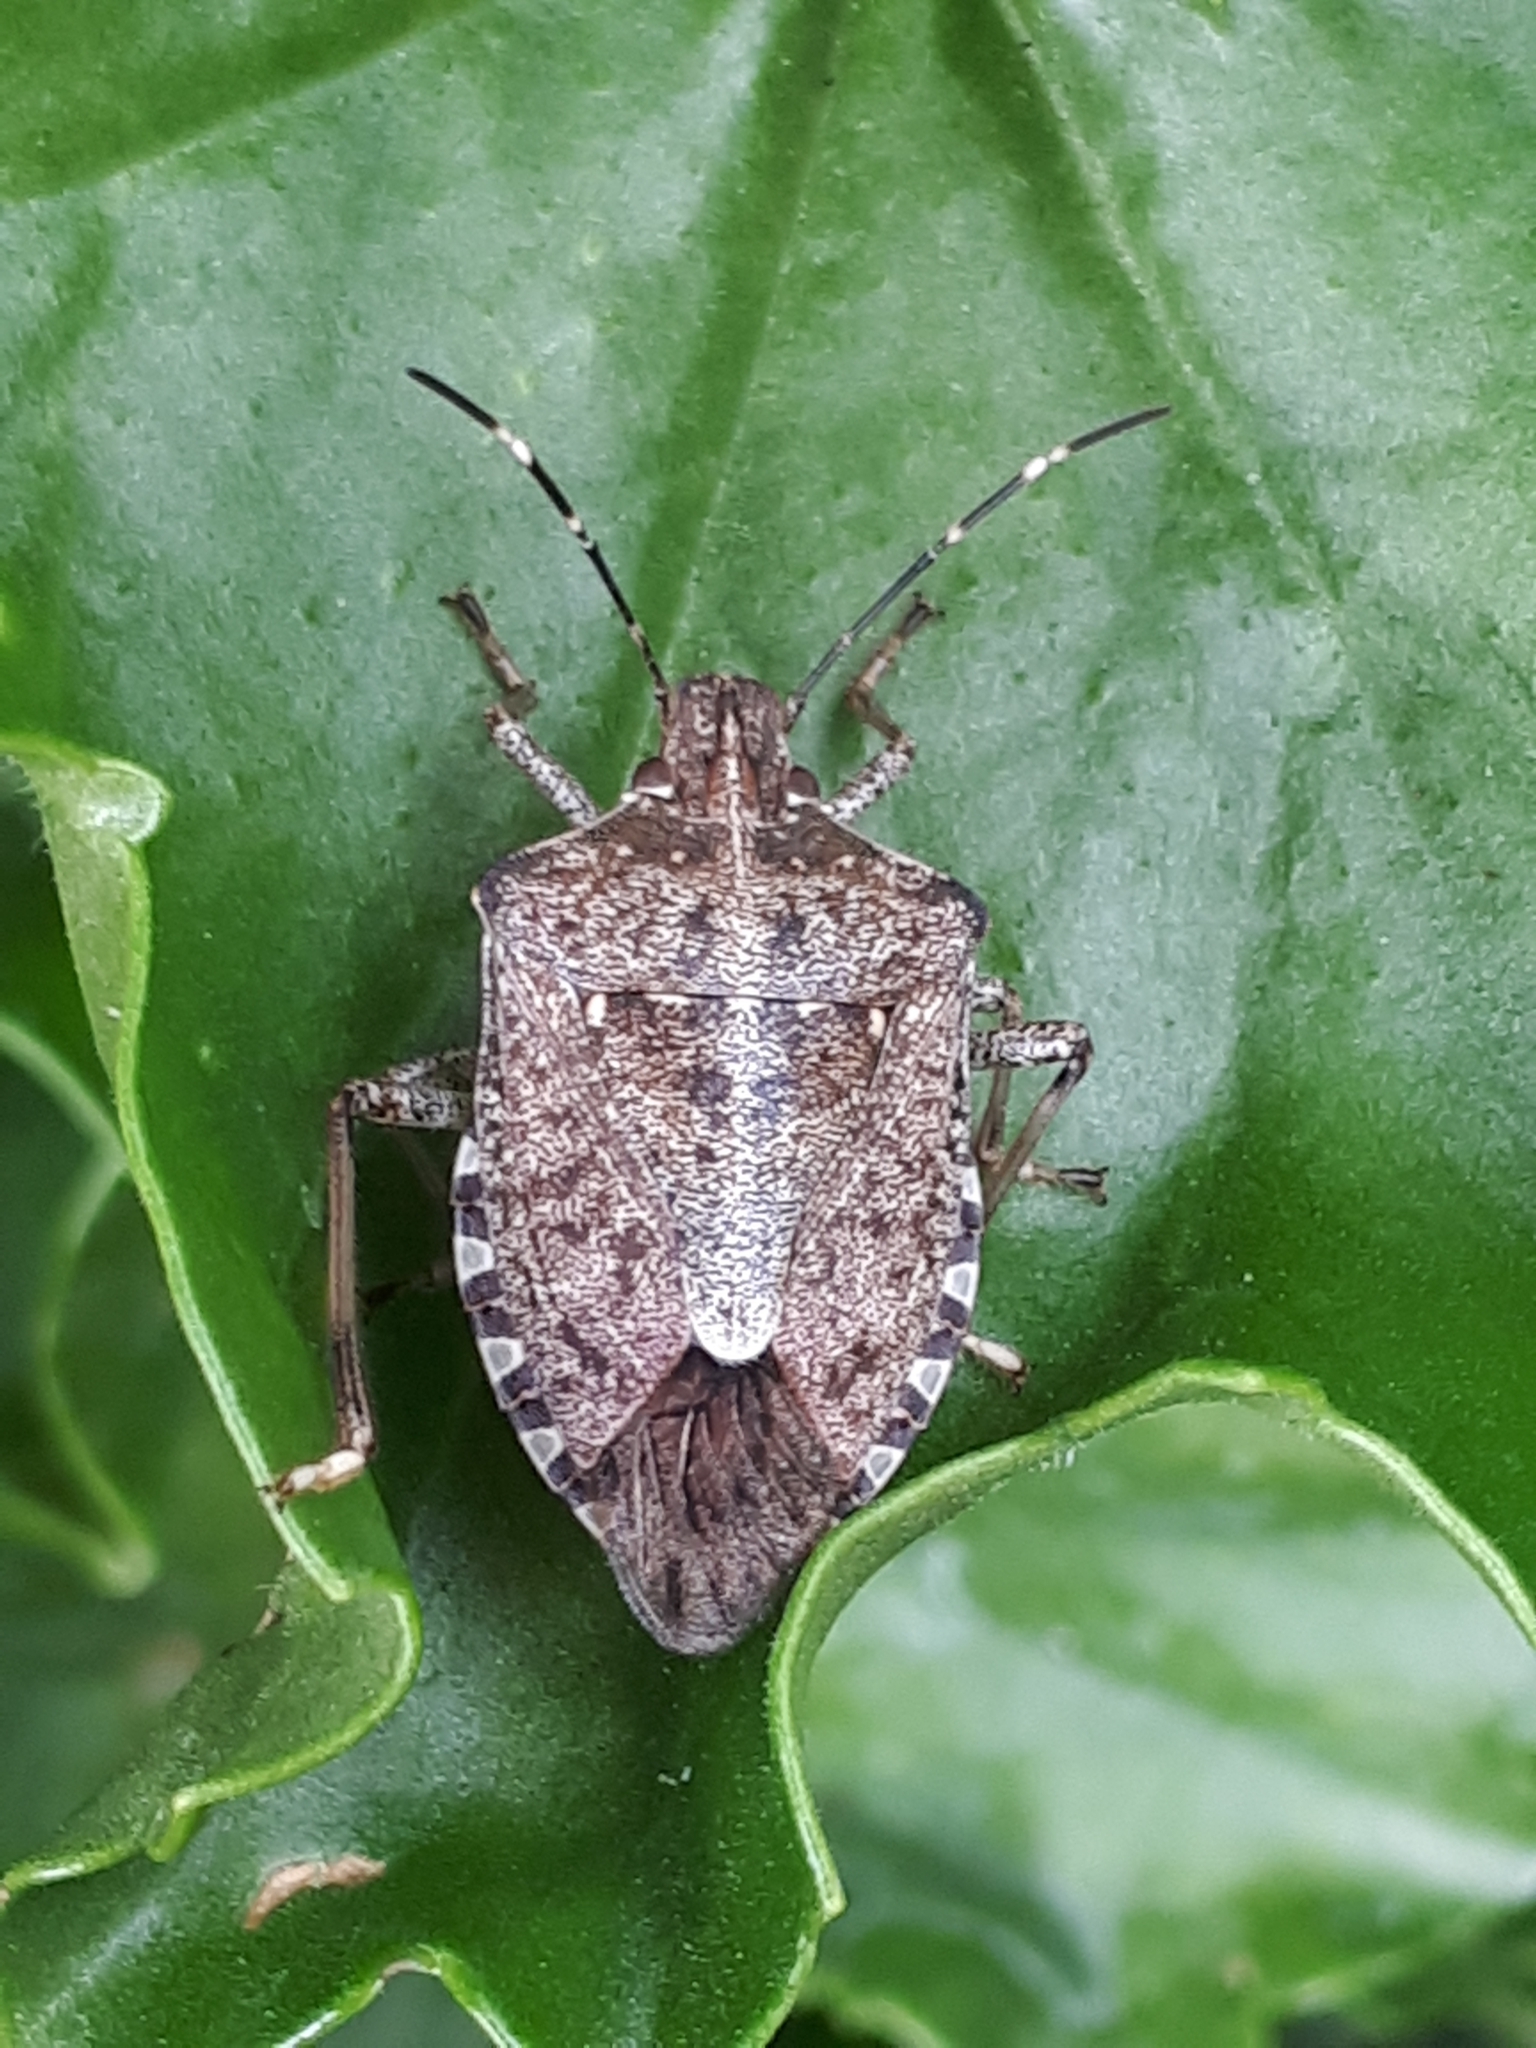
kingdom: Animalia
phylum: Arthropoda
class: Insecta
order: Hemiptera
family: Pentatomidae
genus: Halyomorpha
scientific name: Halyomorpha halys
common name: Brown marmorated stink bug
